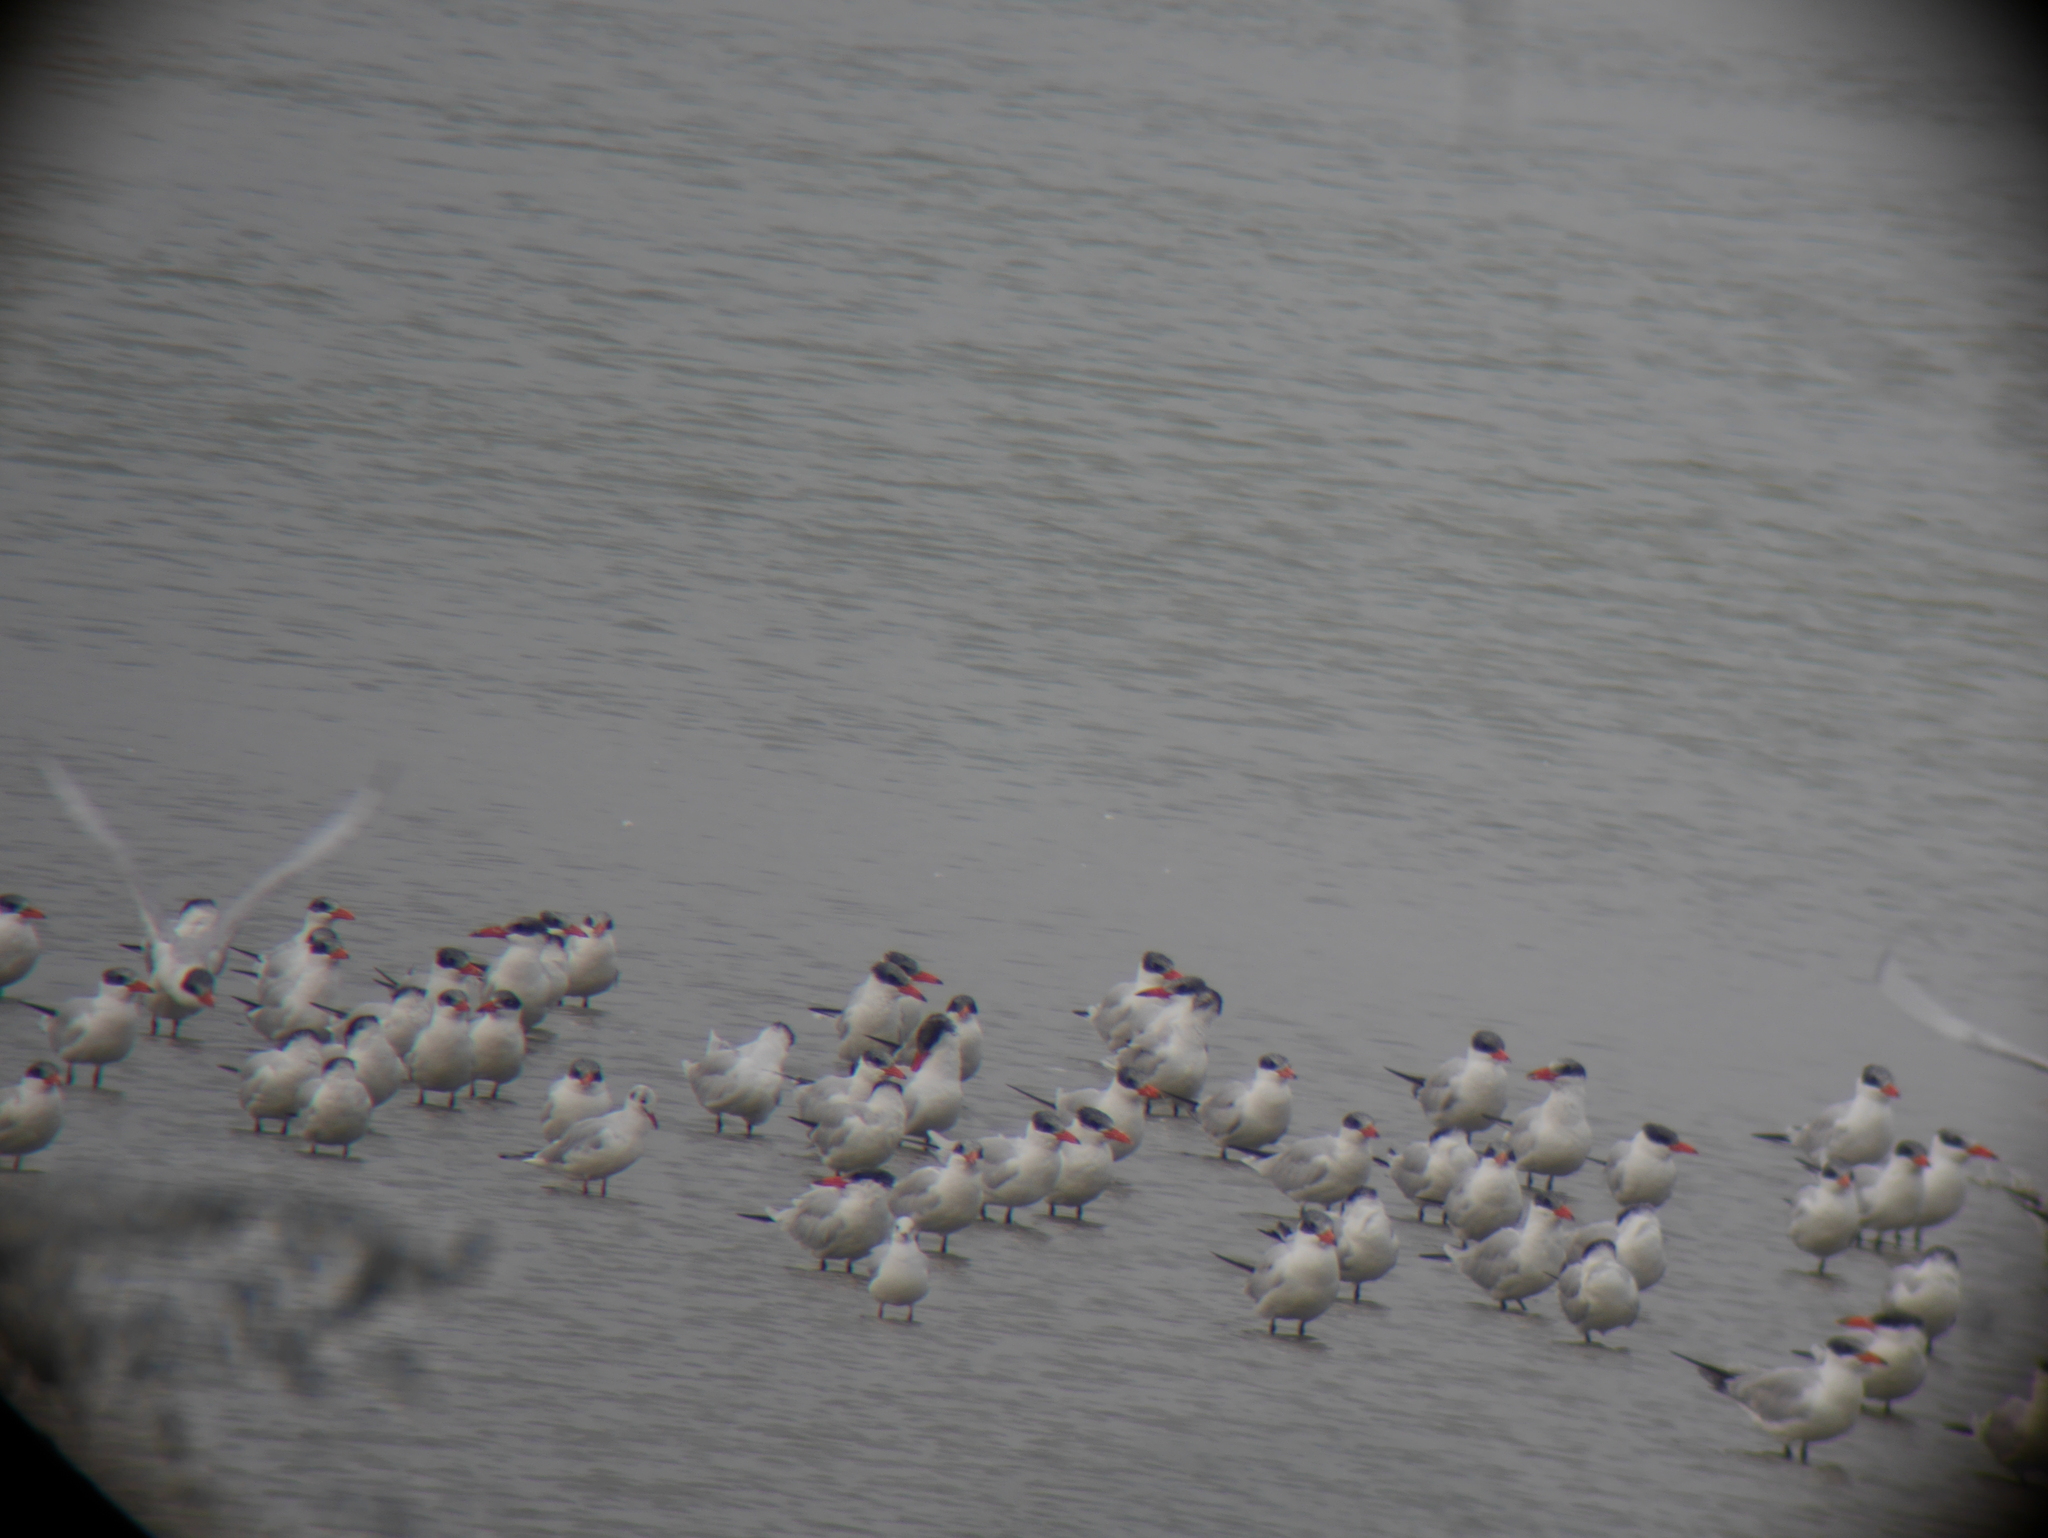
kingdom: Animalia
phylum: Chordata
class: Aves
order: Charadriiformes
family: Laridae
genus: Hydroprogne
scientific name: Hydroprogne caspia
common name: Caspian tern
